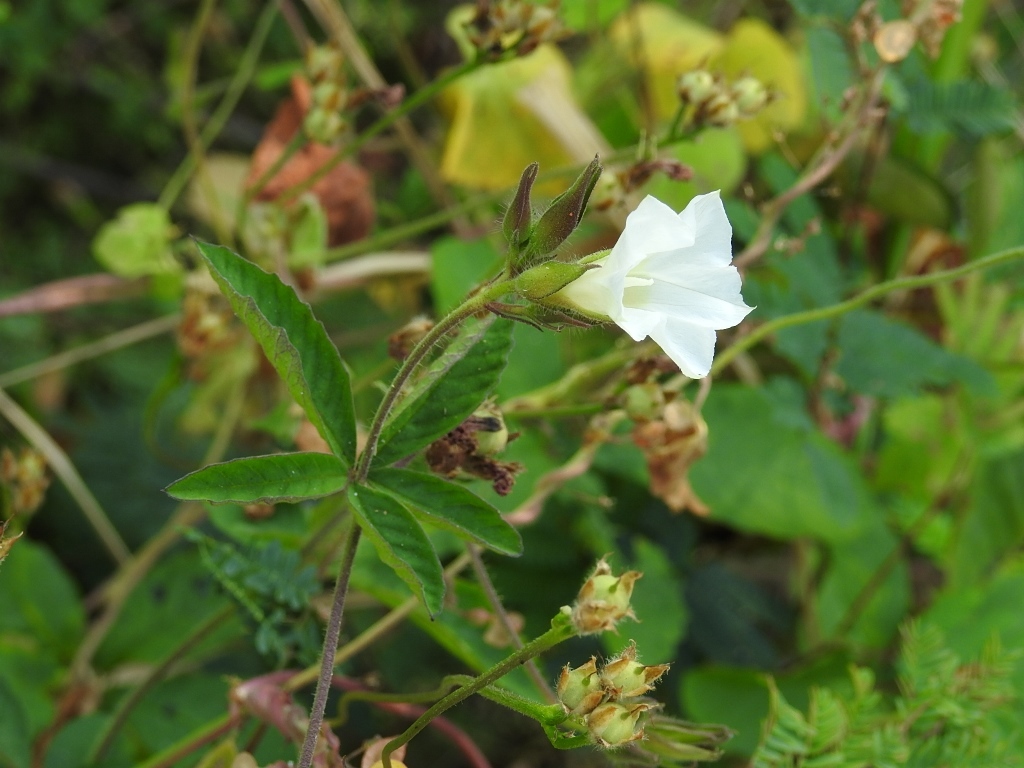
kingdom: Plantae
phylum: Tracheophyta
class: Magnoliopsida
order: Solanales
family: Convolvulaceae
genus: Distimake
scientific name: Distimake cissoides
